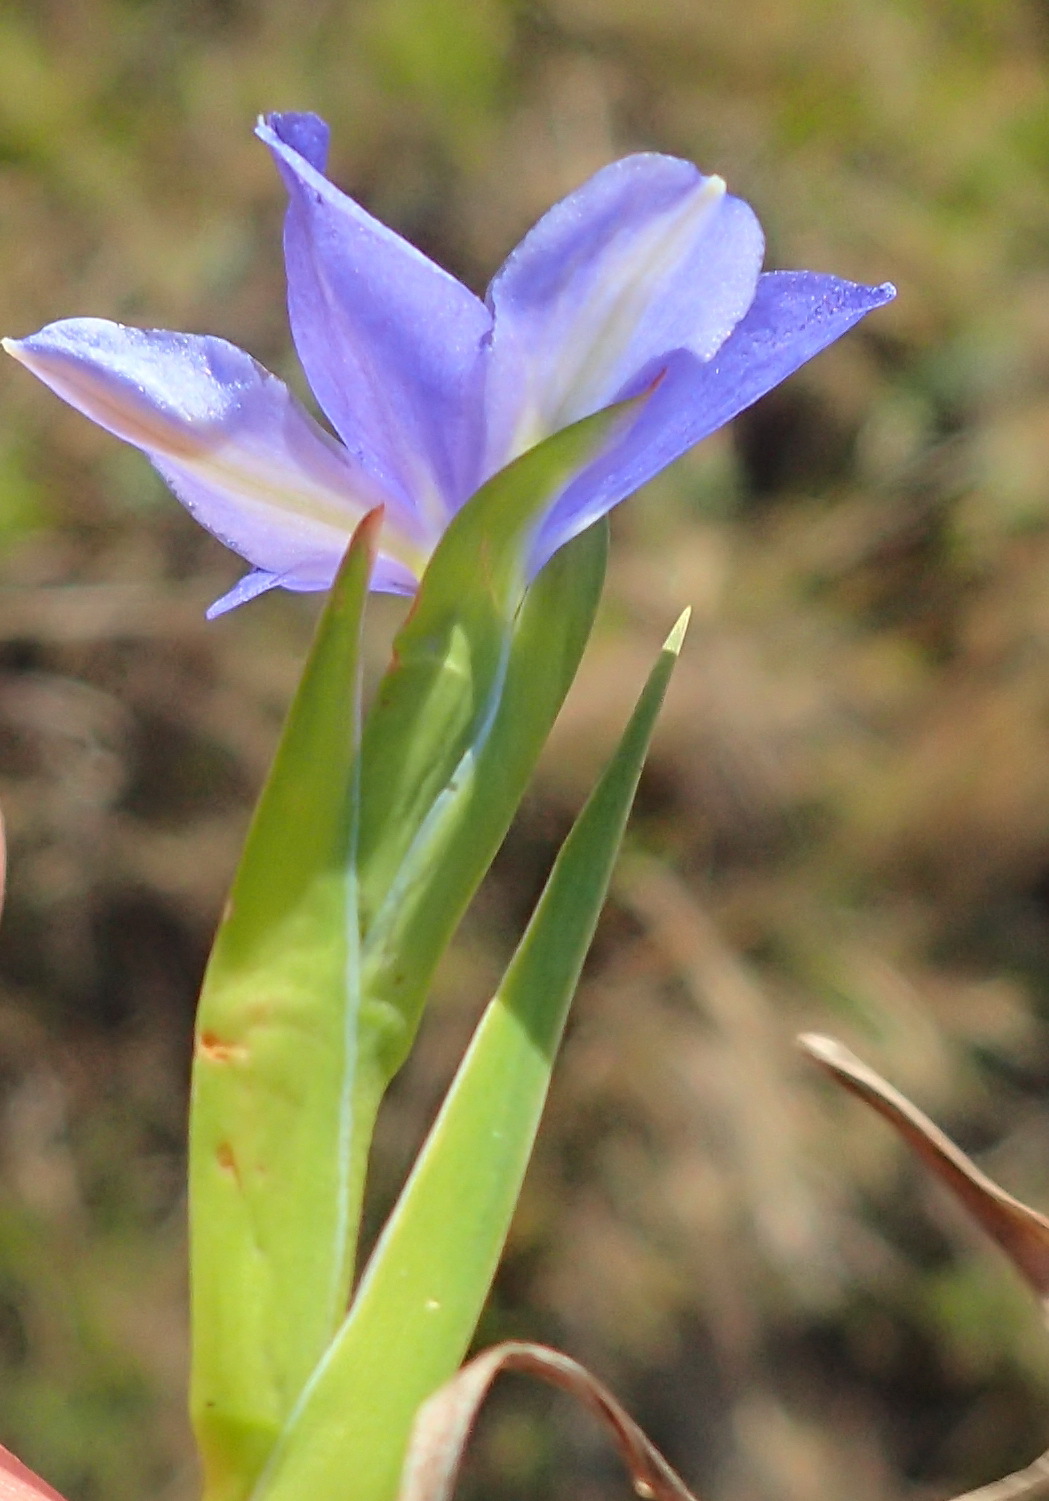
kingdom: Plantae
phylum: Tracheophyta
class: Liliopsida
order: Asparagales
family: Iridaceae
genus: Aristea
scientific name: Aristea pusilla
